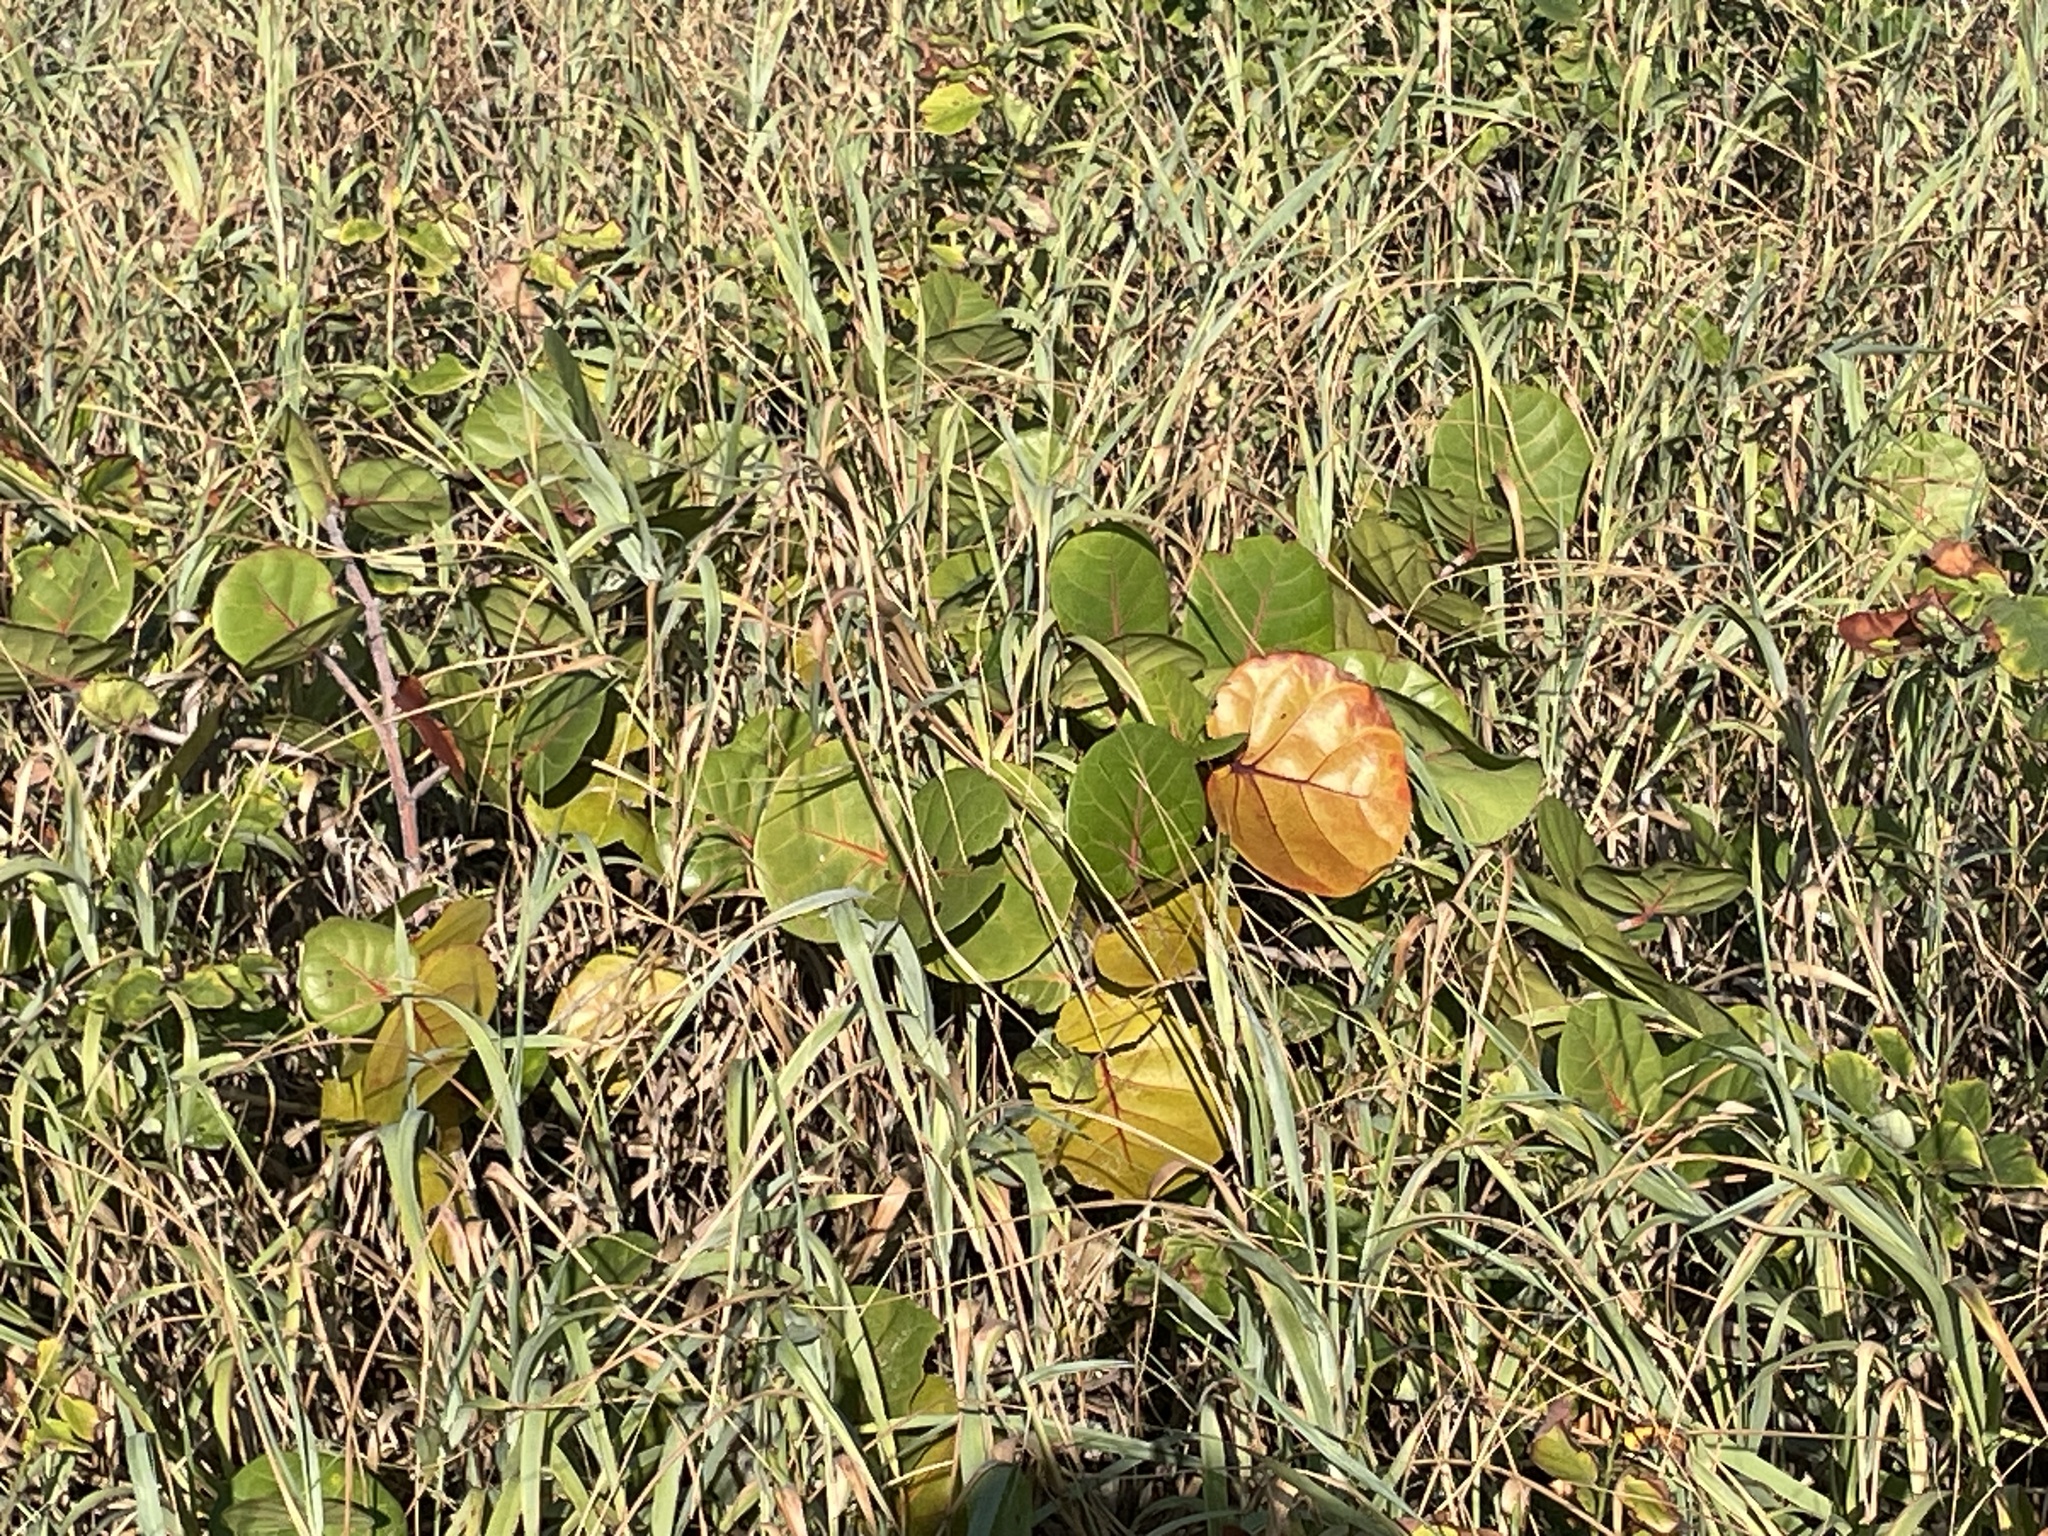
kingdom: Plantae
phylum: Tracheophyta
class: Magnoliopsida
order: Caryophyllales
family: Polygonaceae
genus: Coccoloba
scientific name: Coccoloba uvifera
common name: Seagrape
